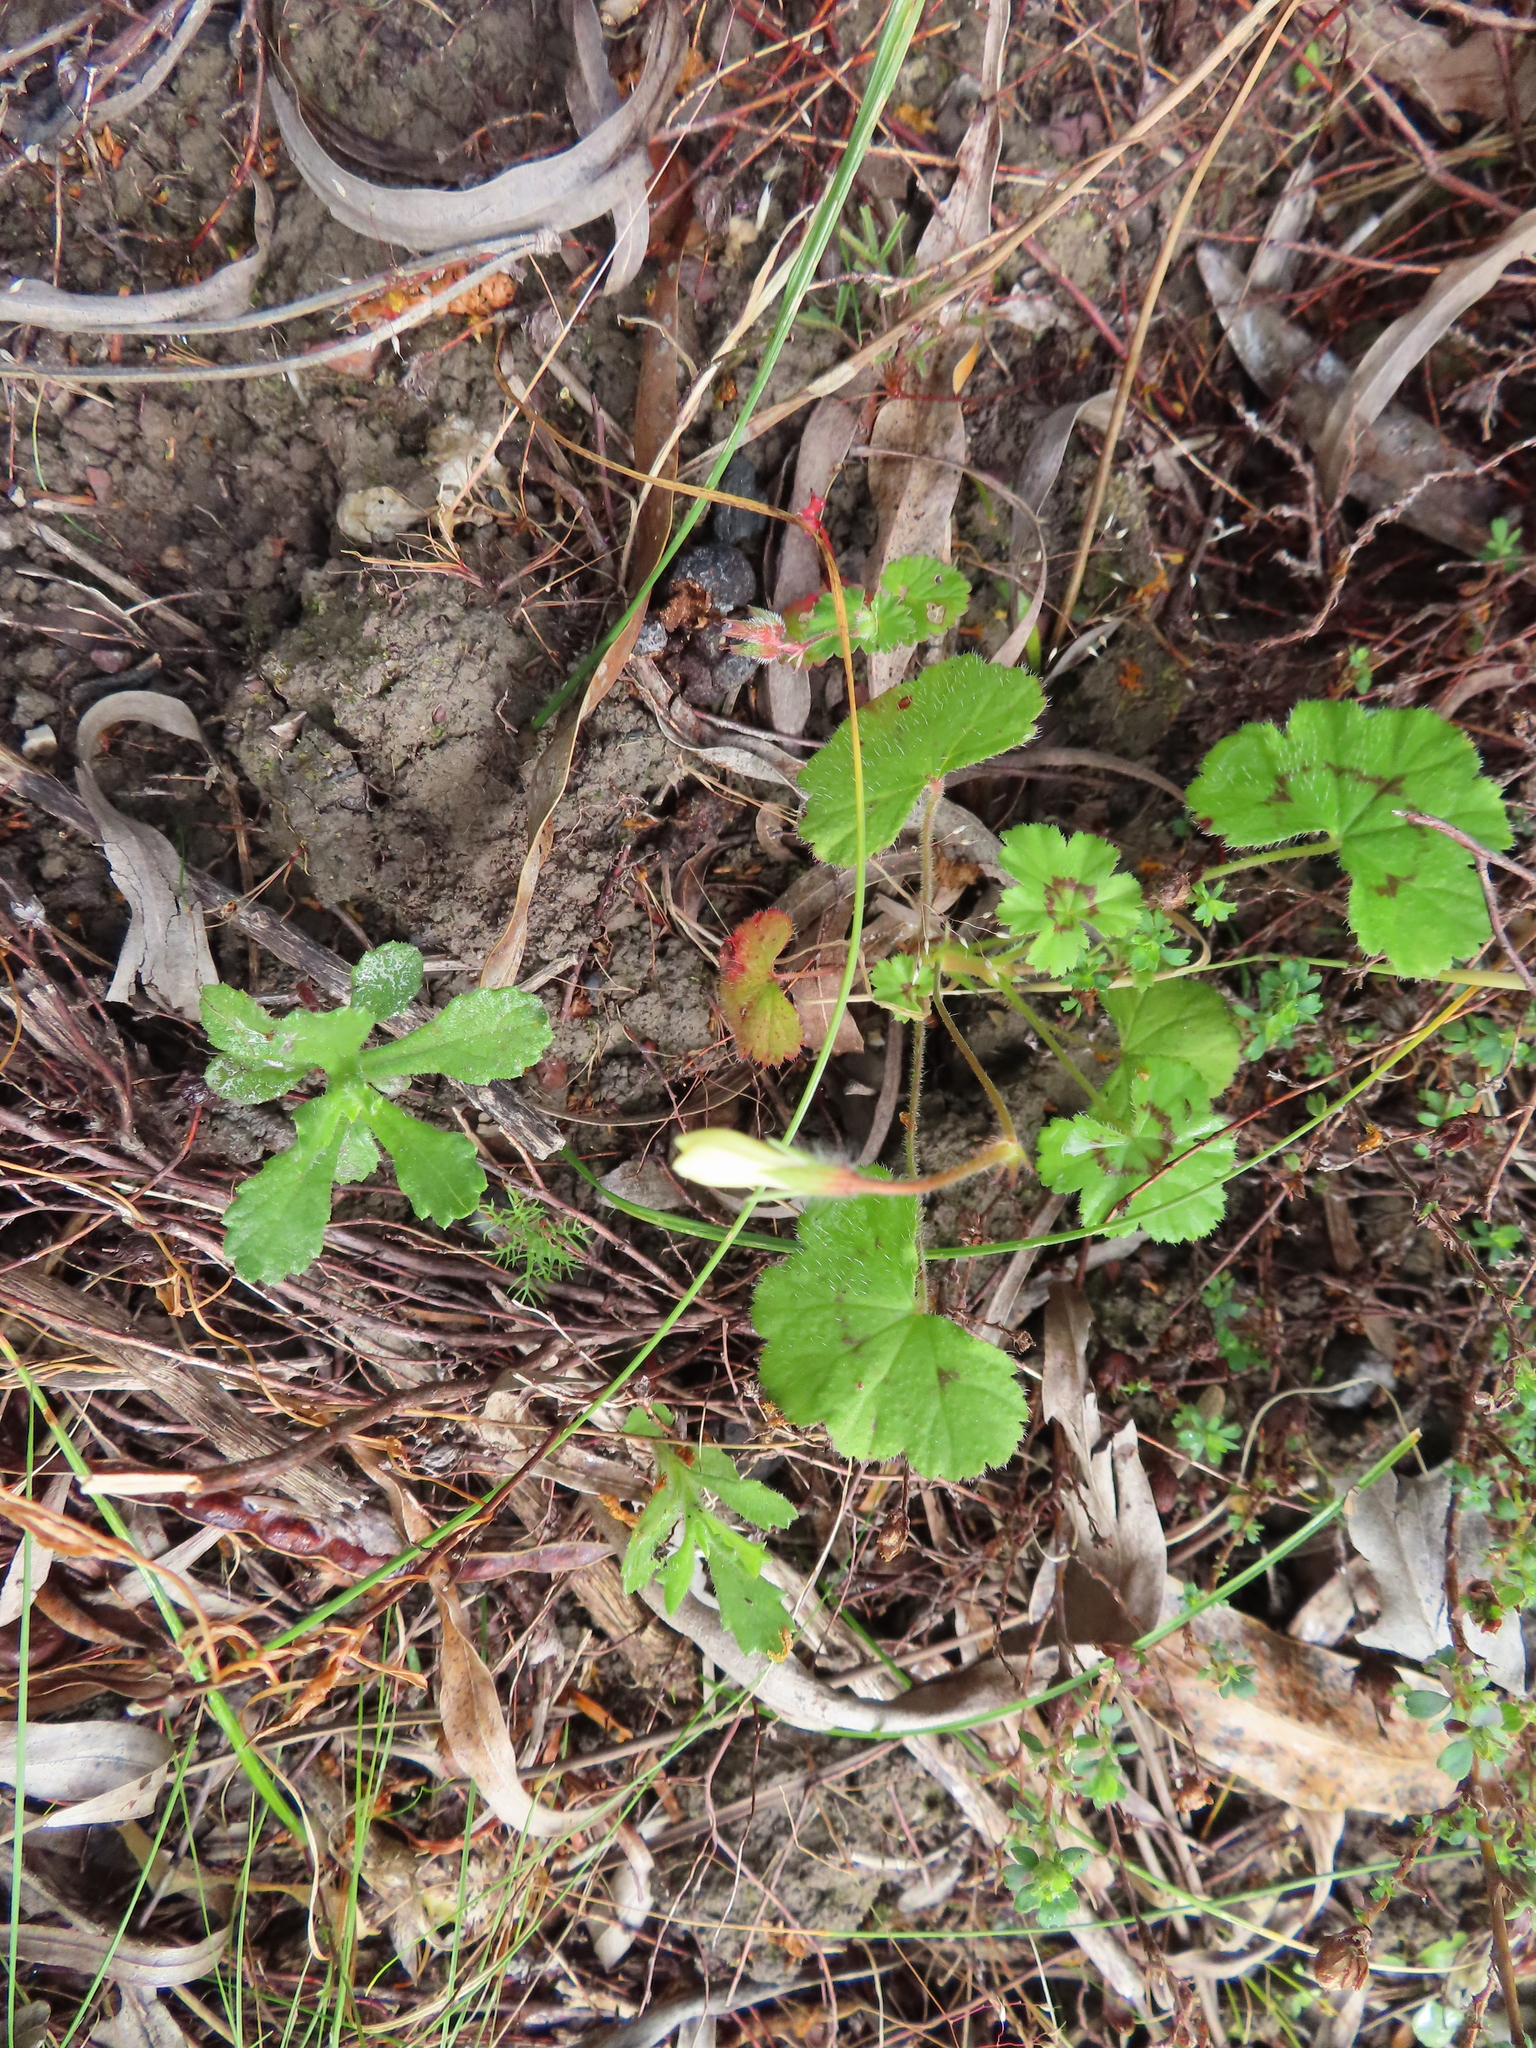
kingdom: Plantae
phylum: Tracheophyta
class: Magnoliopsida
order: Geraniales
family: Geraniaceae
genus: Pelargonium
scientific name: Pelargonium elongatum
